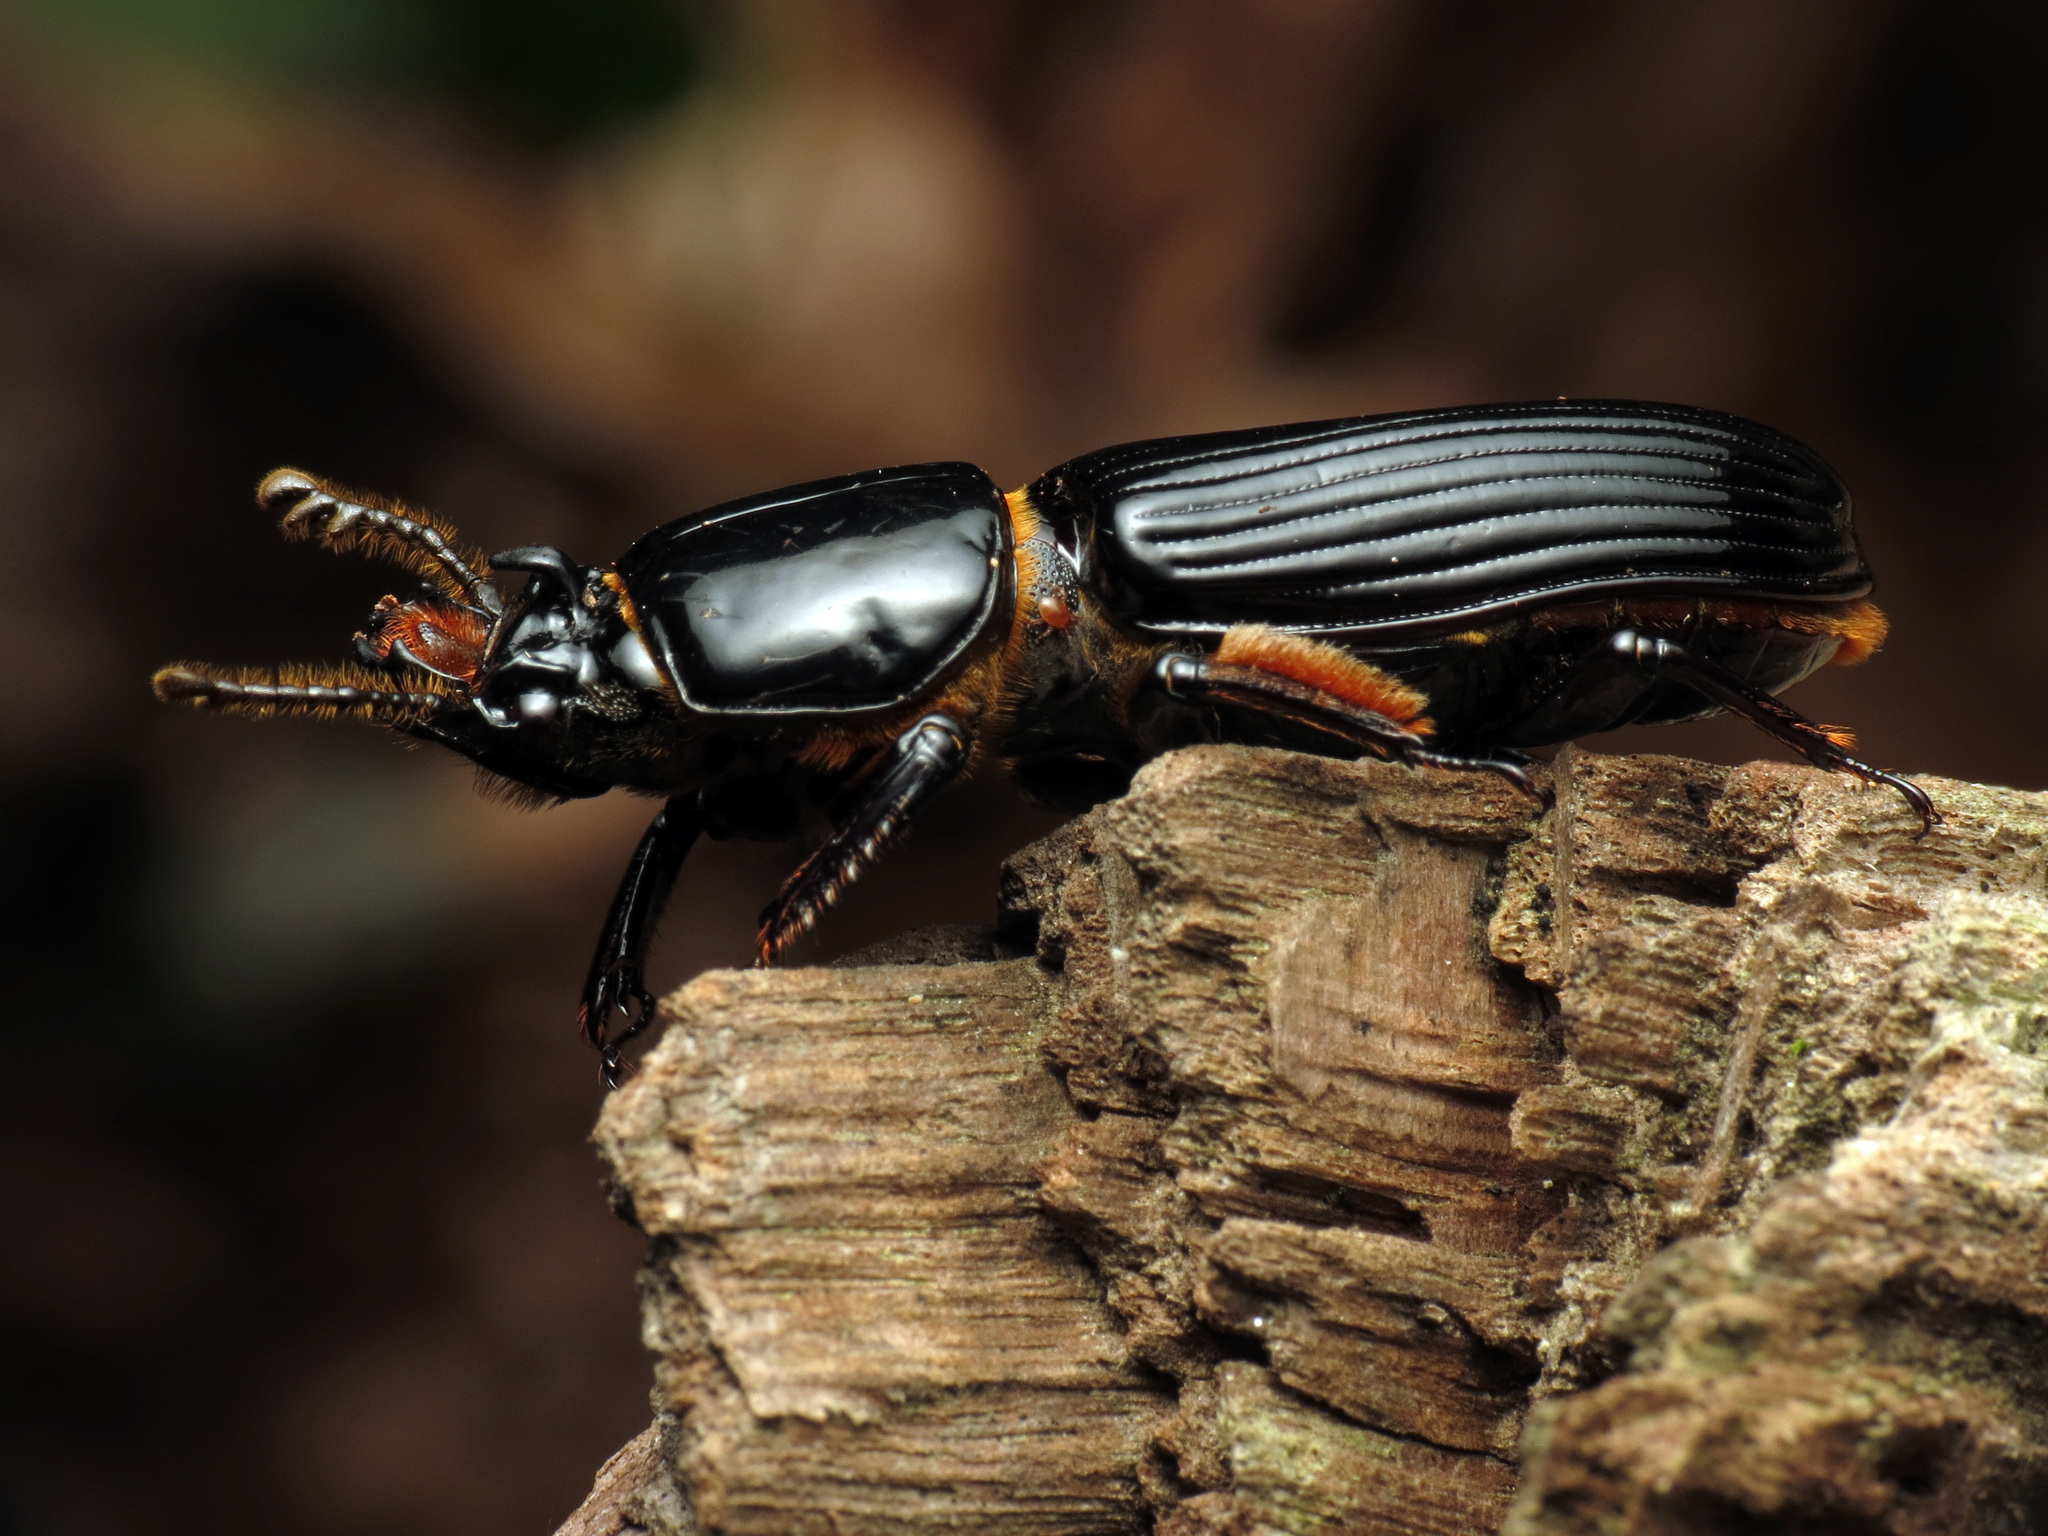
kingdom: Animalia
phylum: Arthropoda
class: Insecta
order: Coleoptera
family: Passalidae
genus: Odontotaenius
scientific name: Odontotaenius disjunctus
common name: Patent leather beetle
